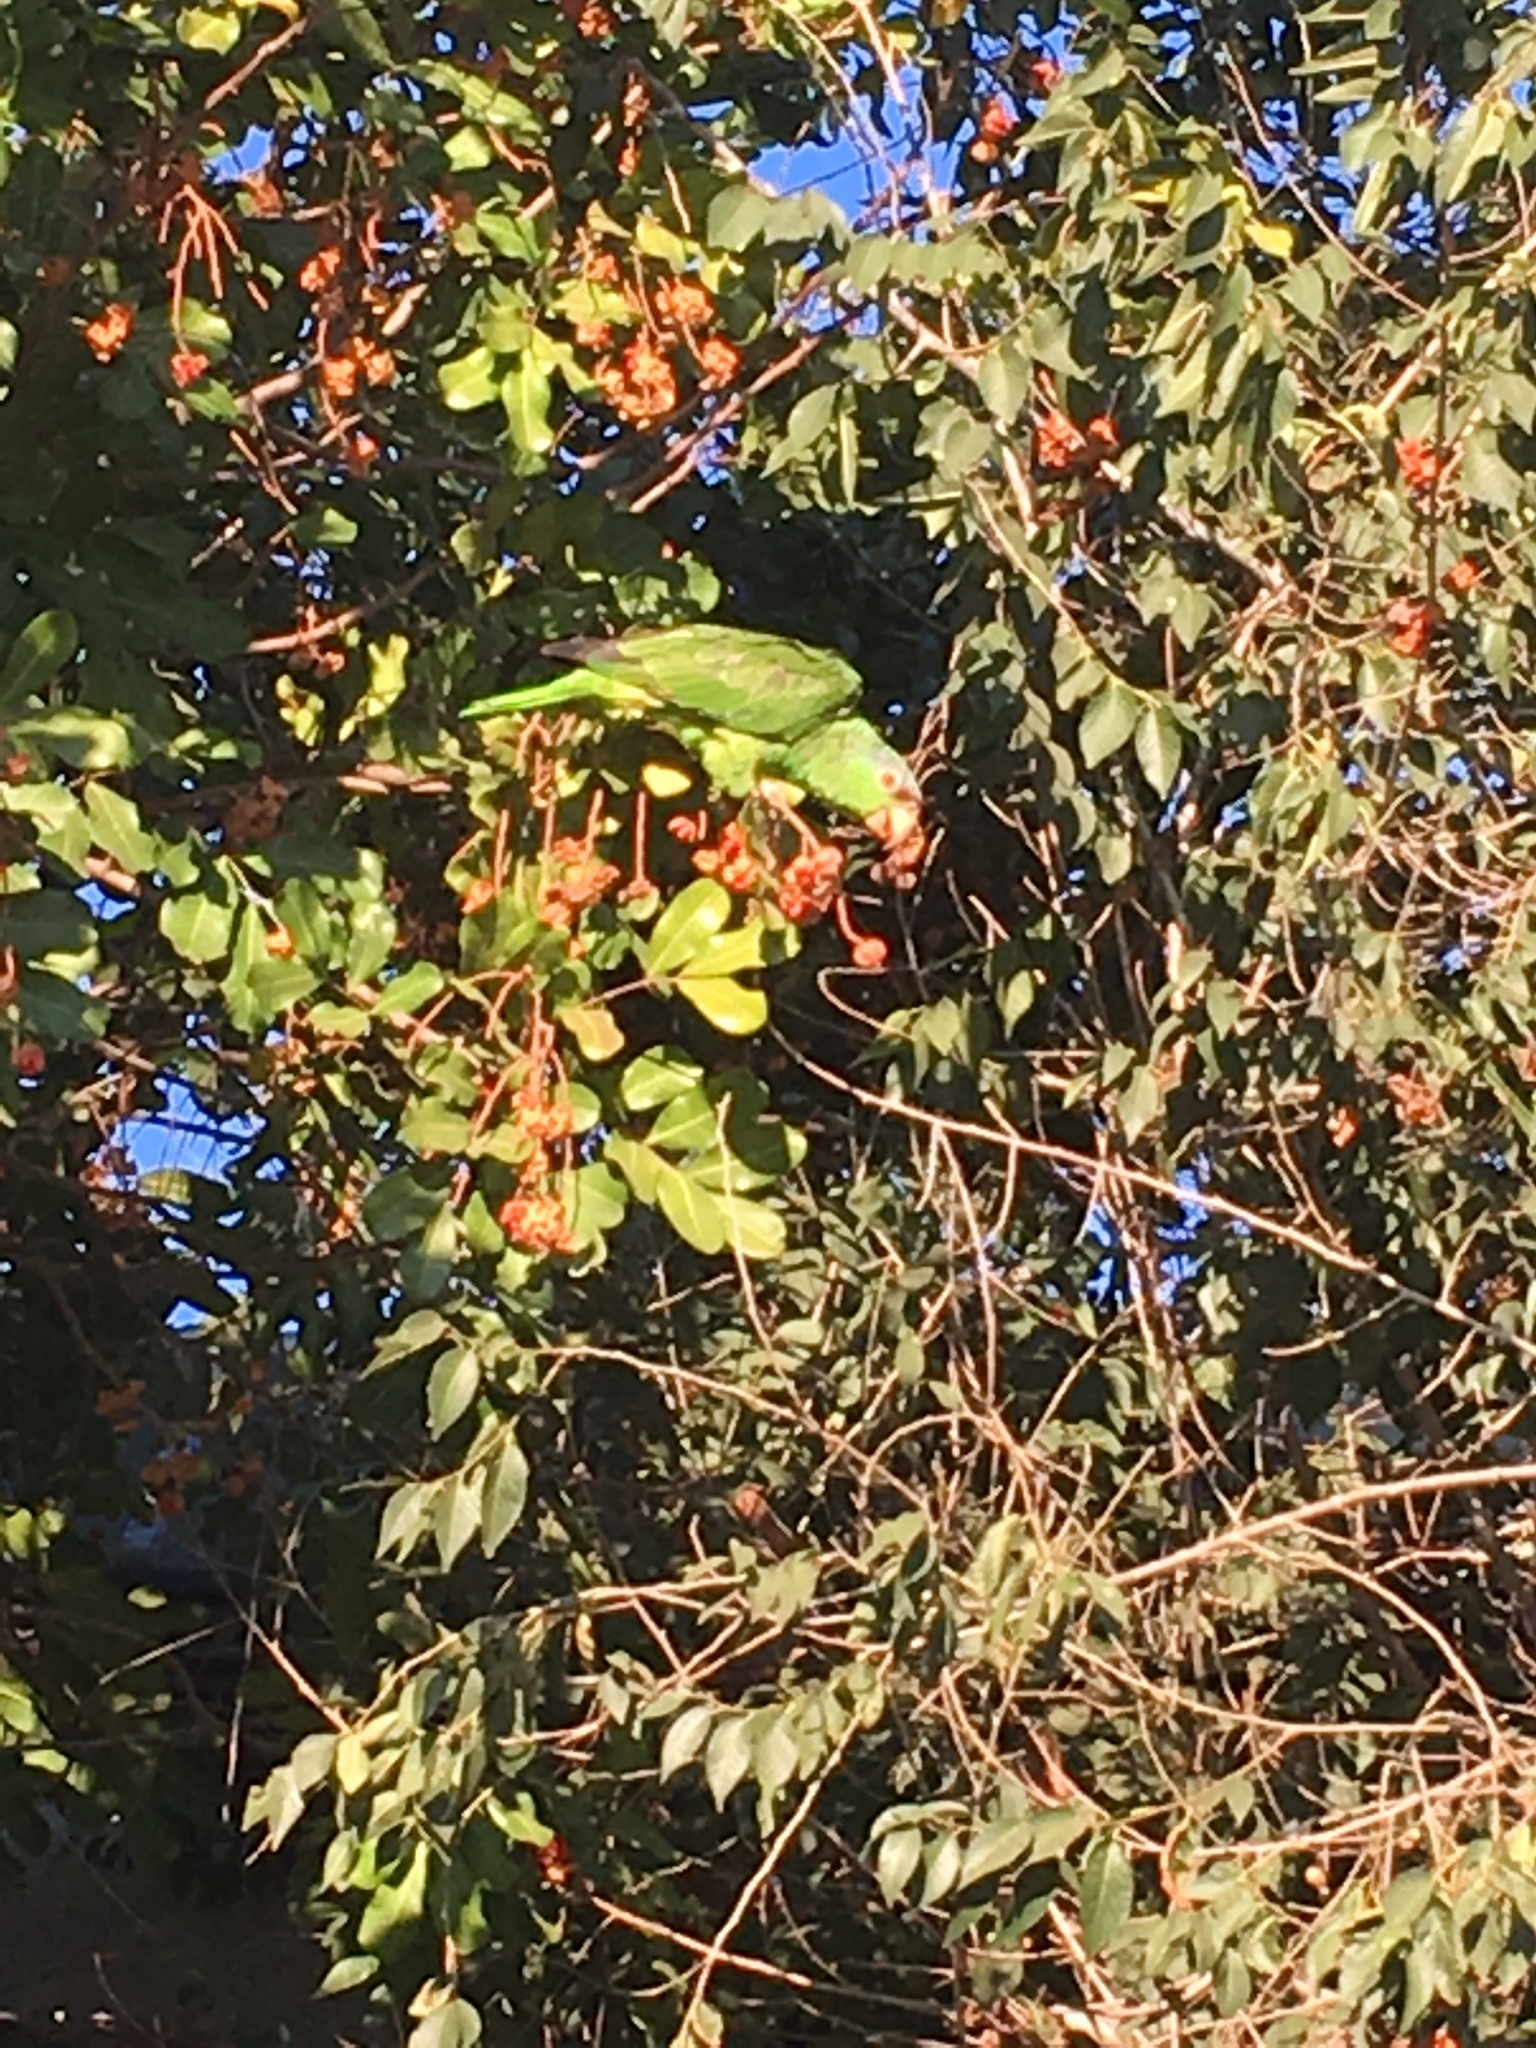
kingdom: Animalia
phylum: Chordata
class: Aves
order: Psittaciformes
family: Psittacidae
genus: Amazona
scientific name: Amazona finschi
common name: Lilac-crowned amazon
